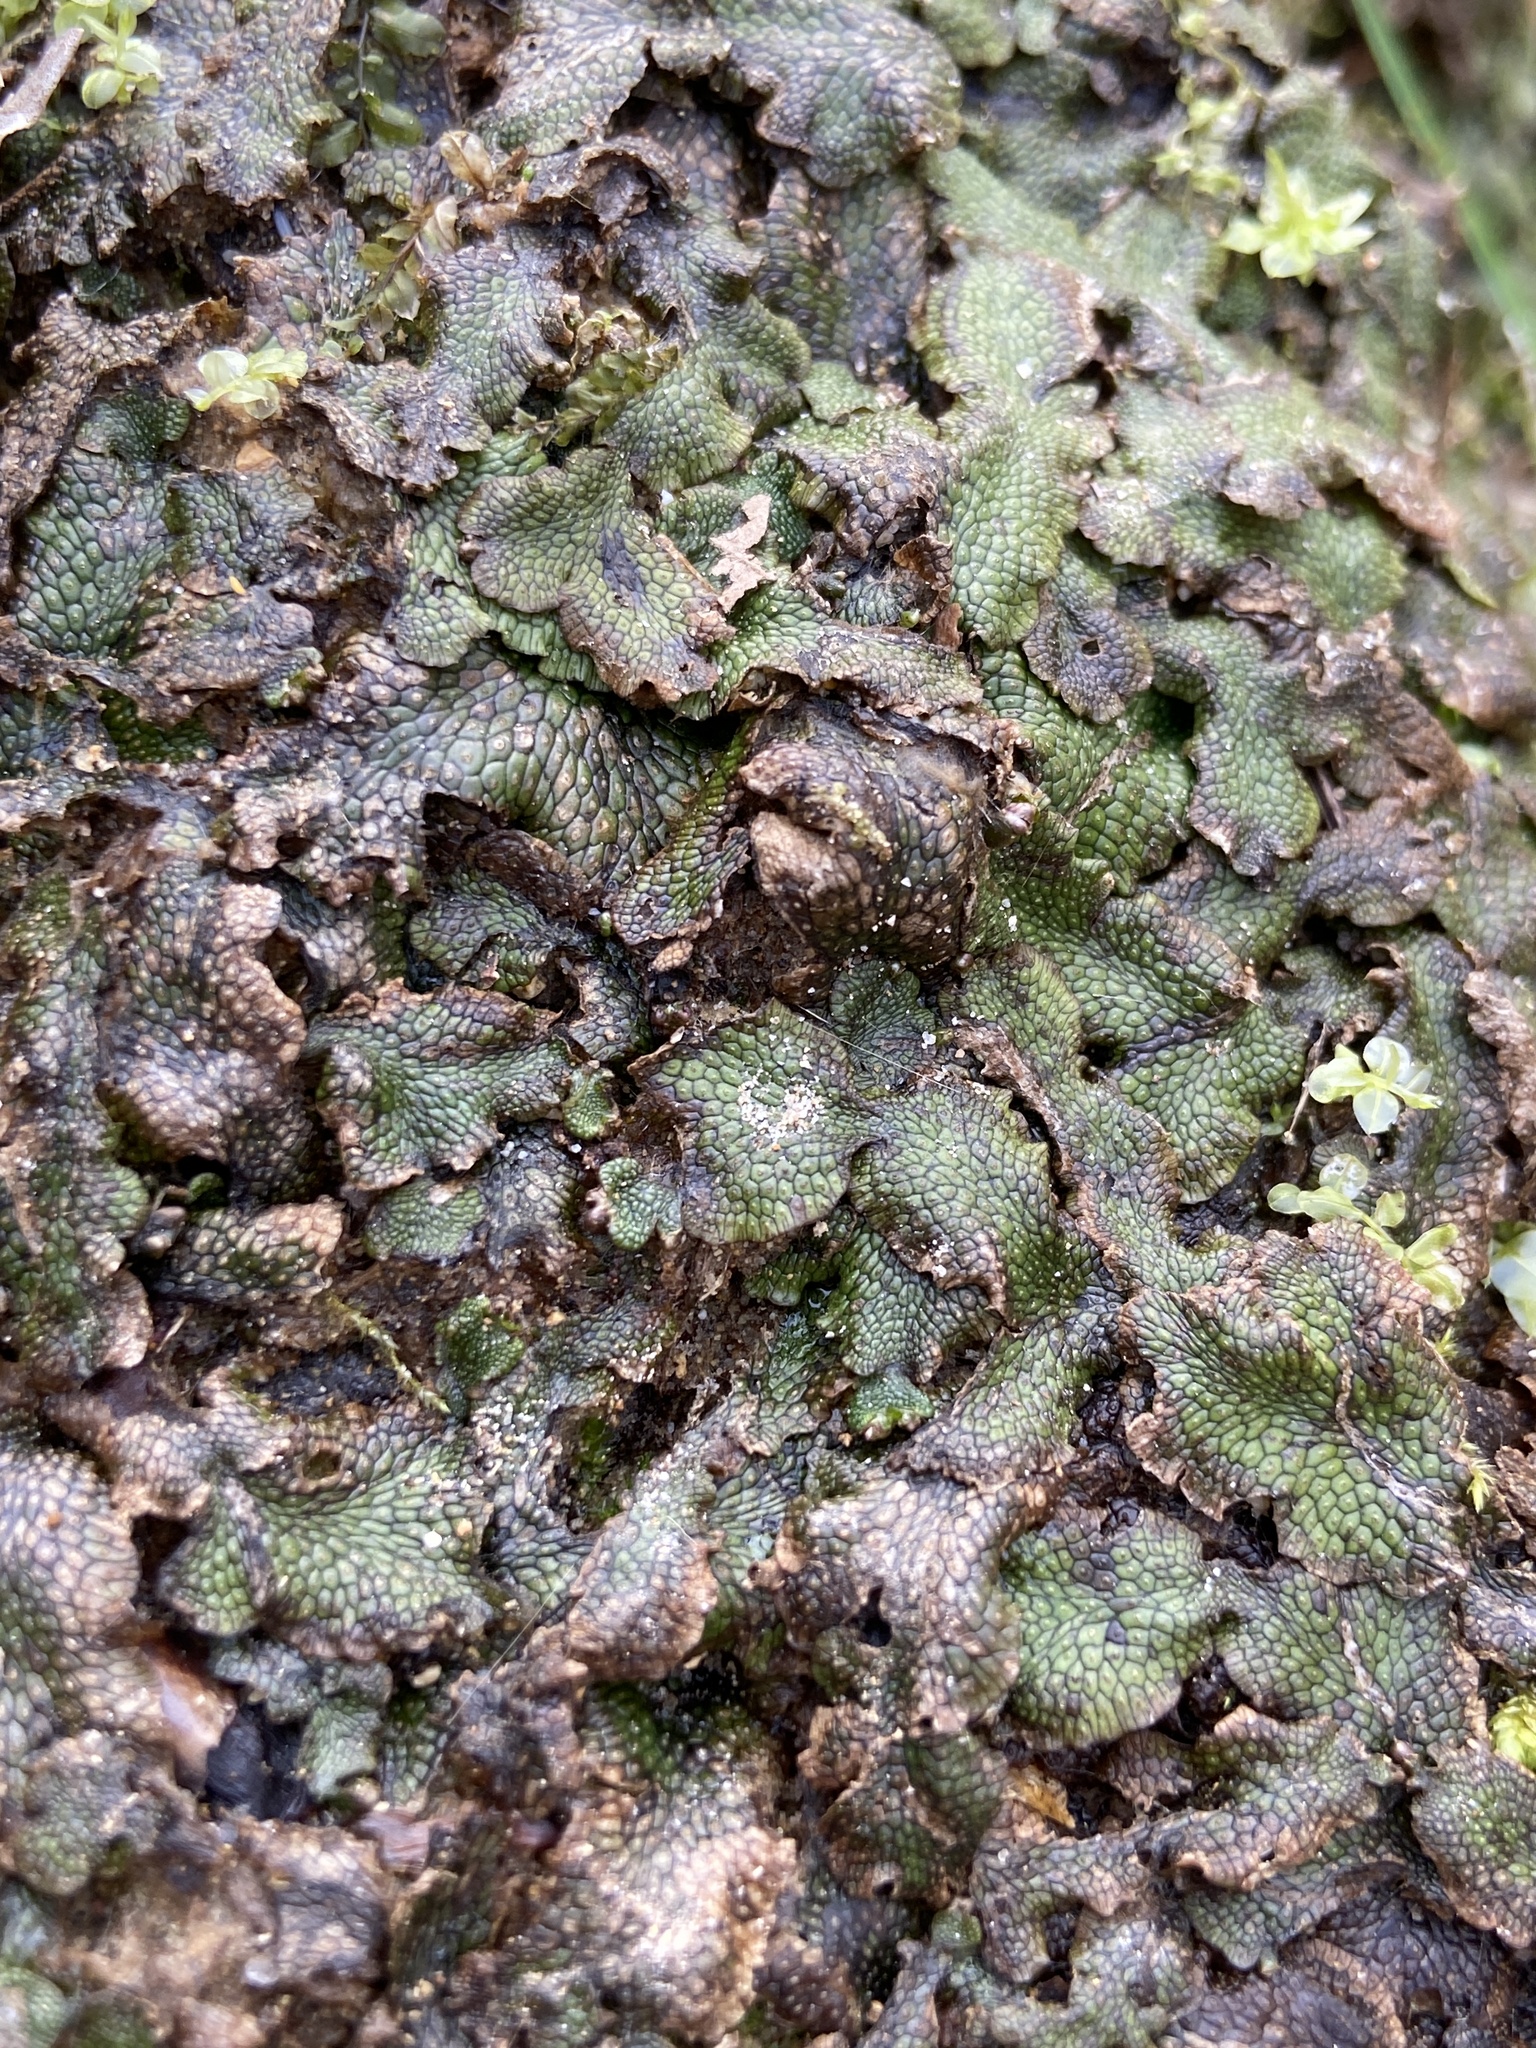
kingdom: Plantae
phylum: Marchantiophyta
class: Marchantiopsida
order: Marchantiales
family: Conocephalaceae
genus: Conocephalum
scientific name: Conocephalum salebrosum
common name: Cat-tongue liverwort
